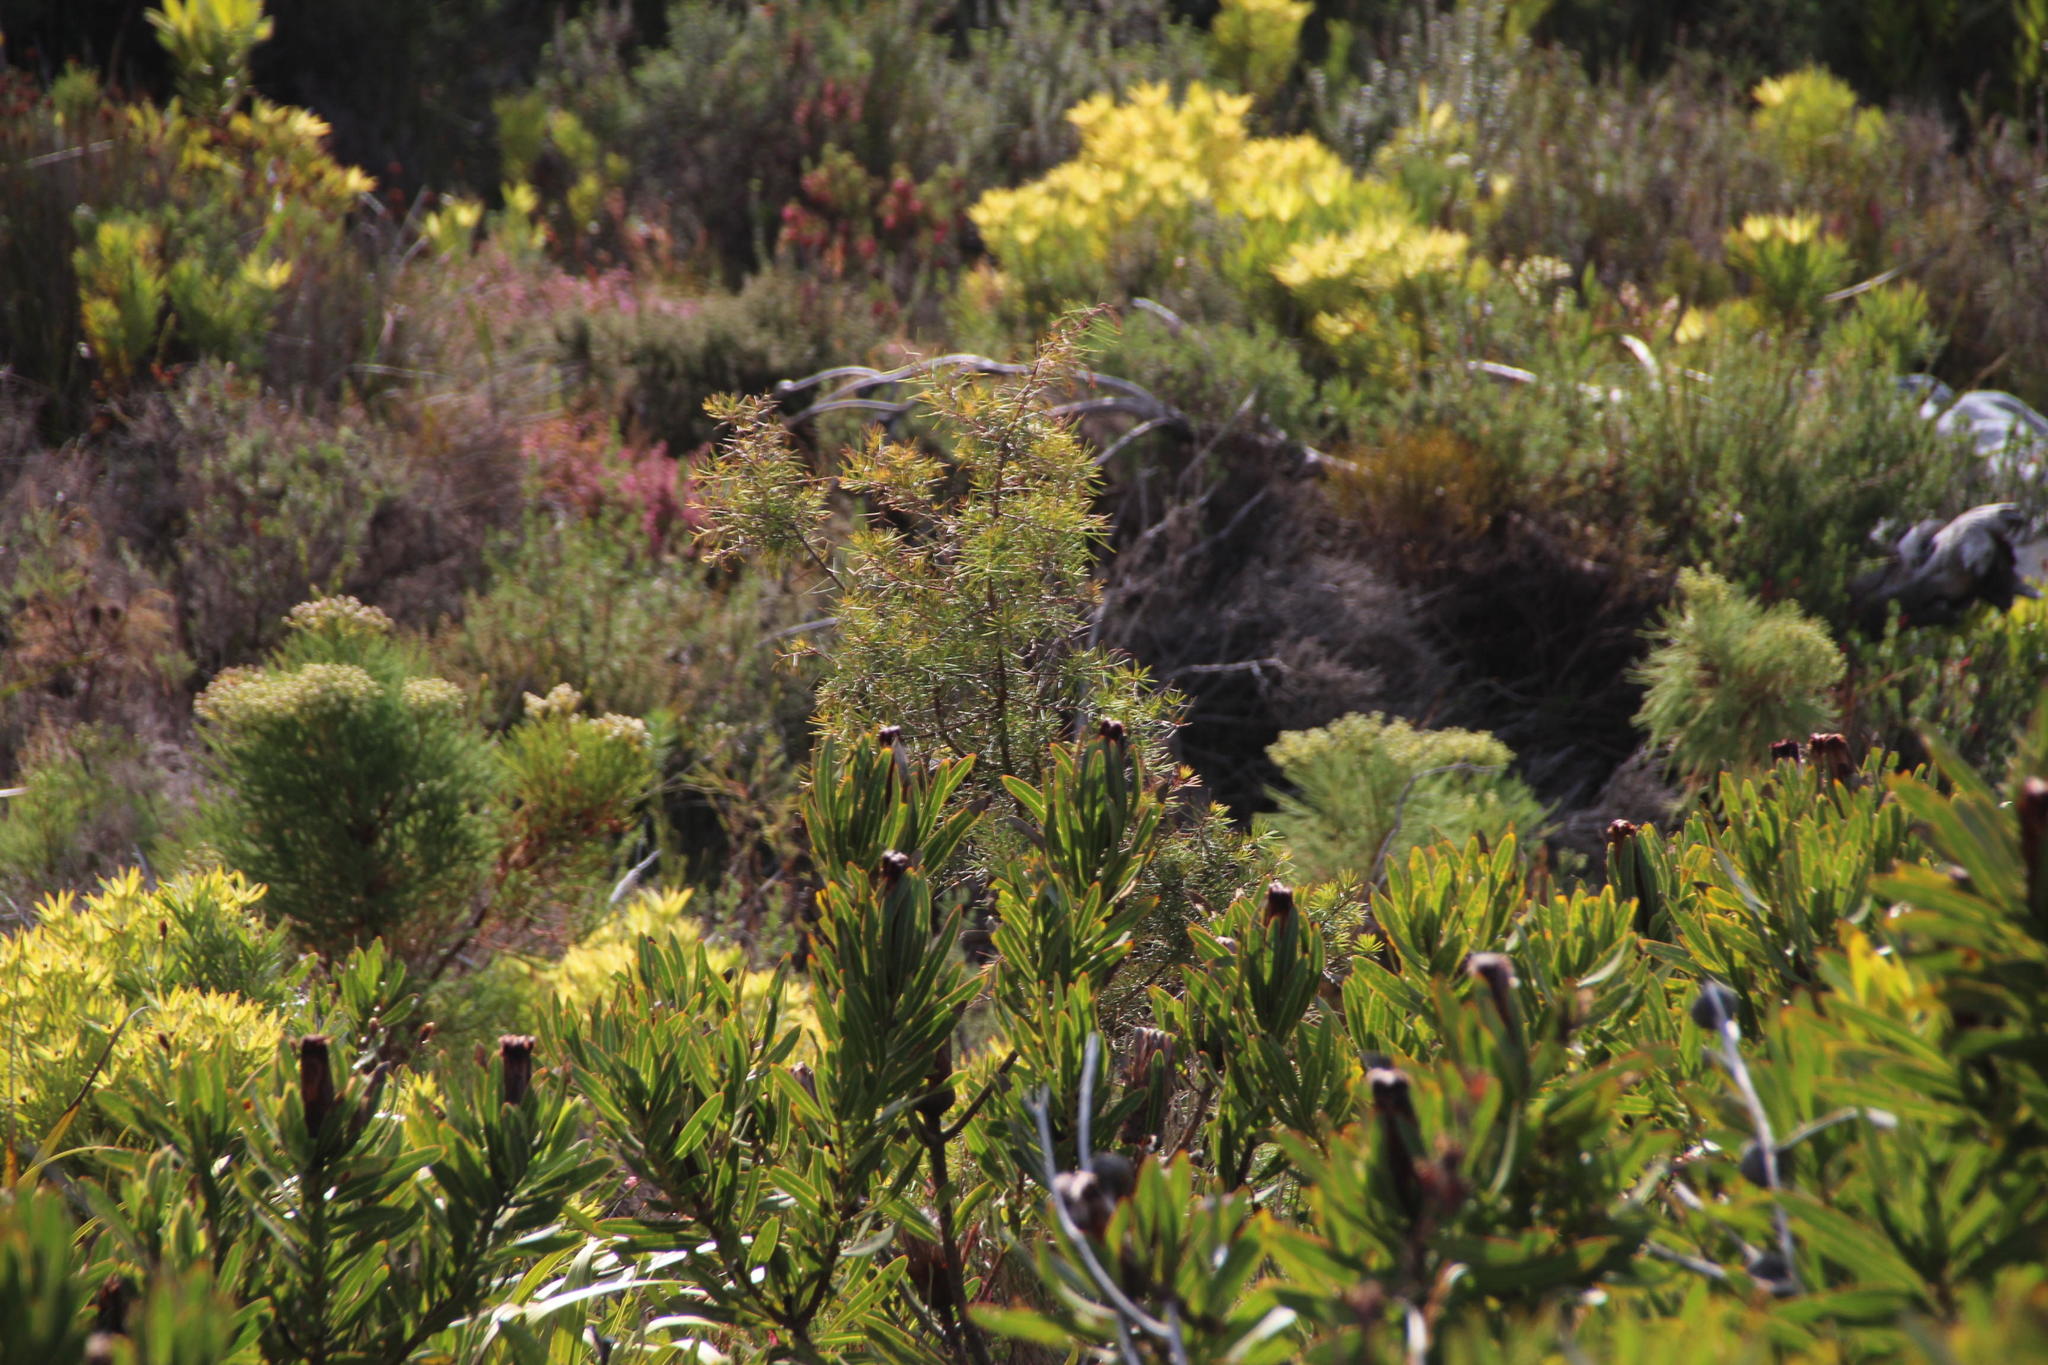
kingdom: Plantae
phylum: Tracheophyta
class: Magnoliopsida
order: Proteales
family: Proteaceae
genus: Hakea
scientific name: Hakea sericea
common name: Needle bush
